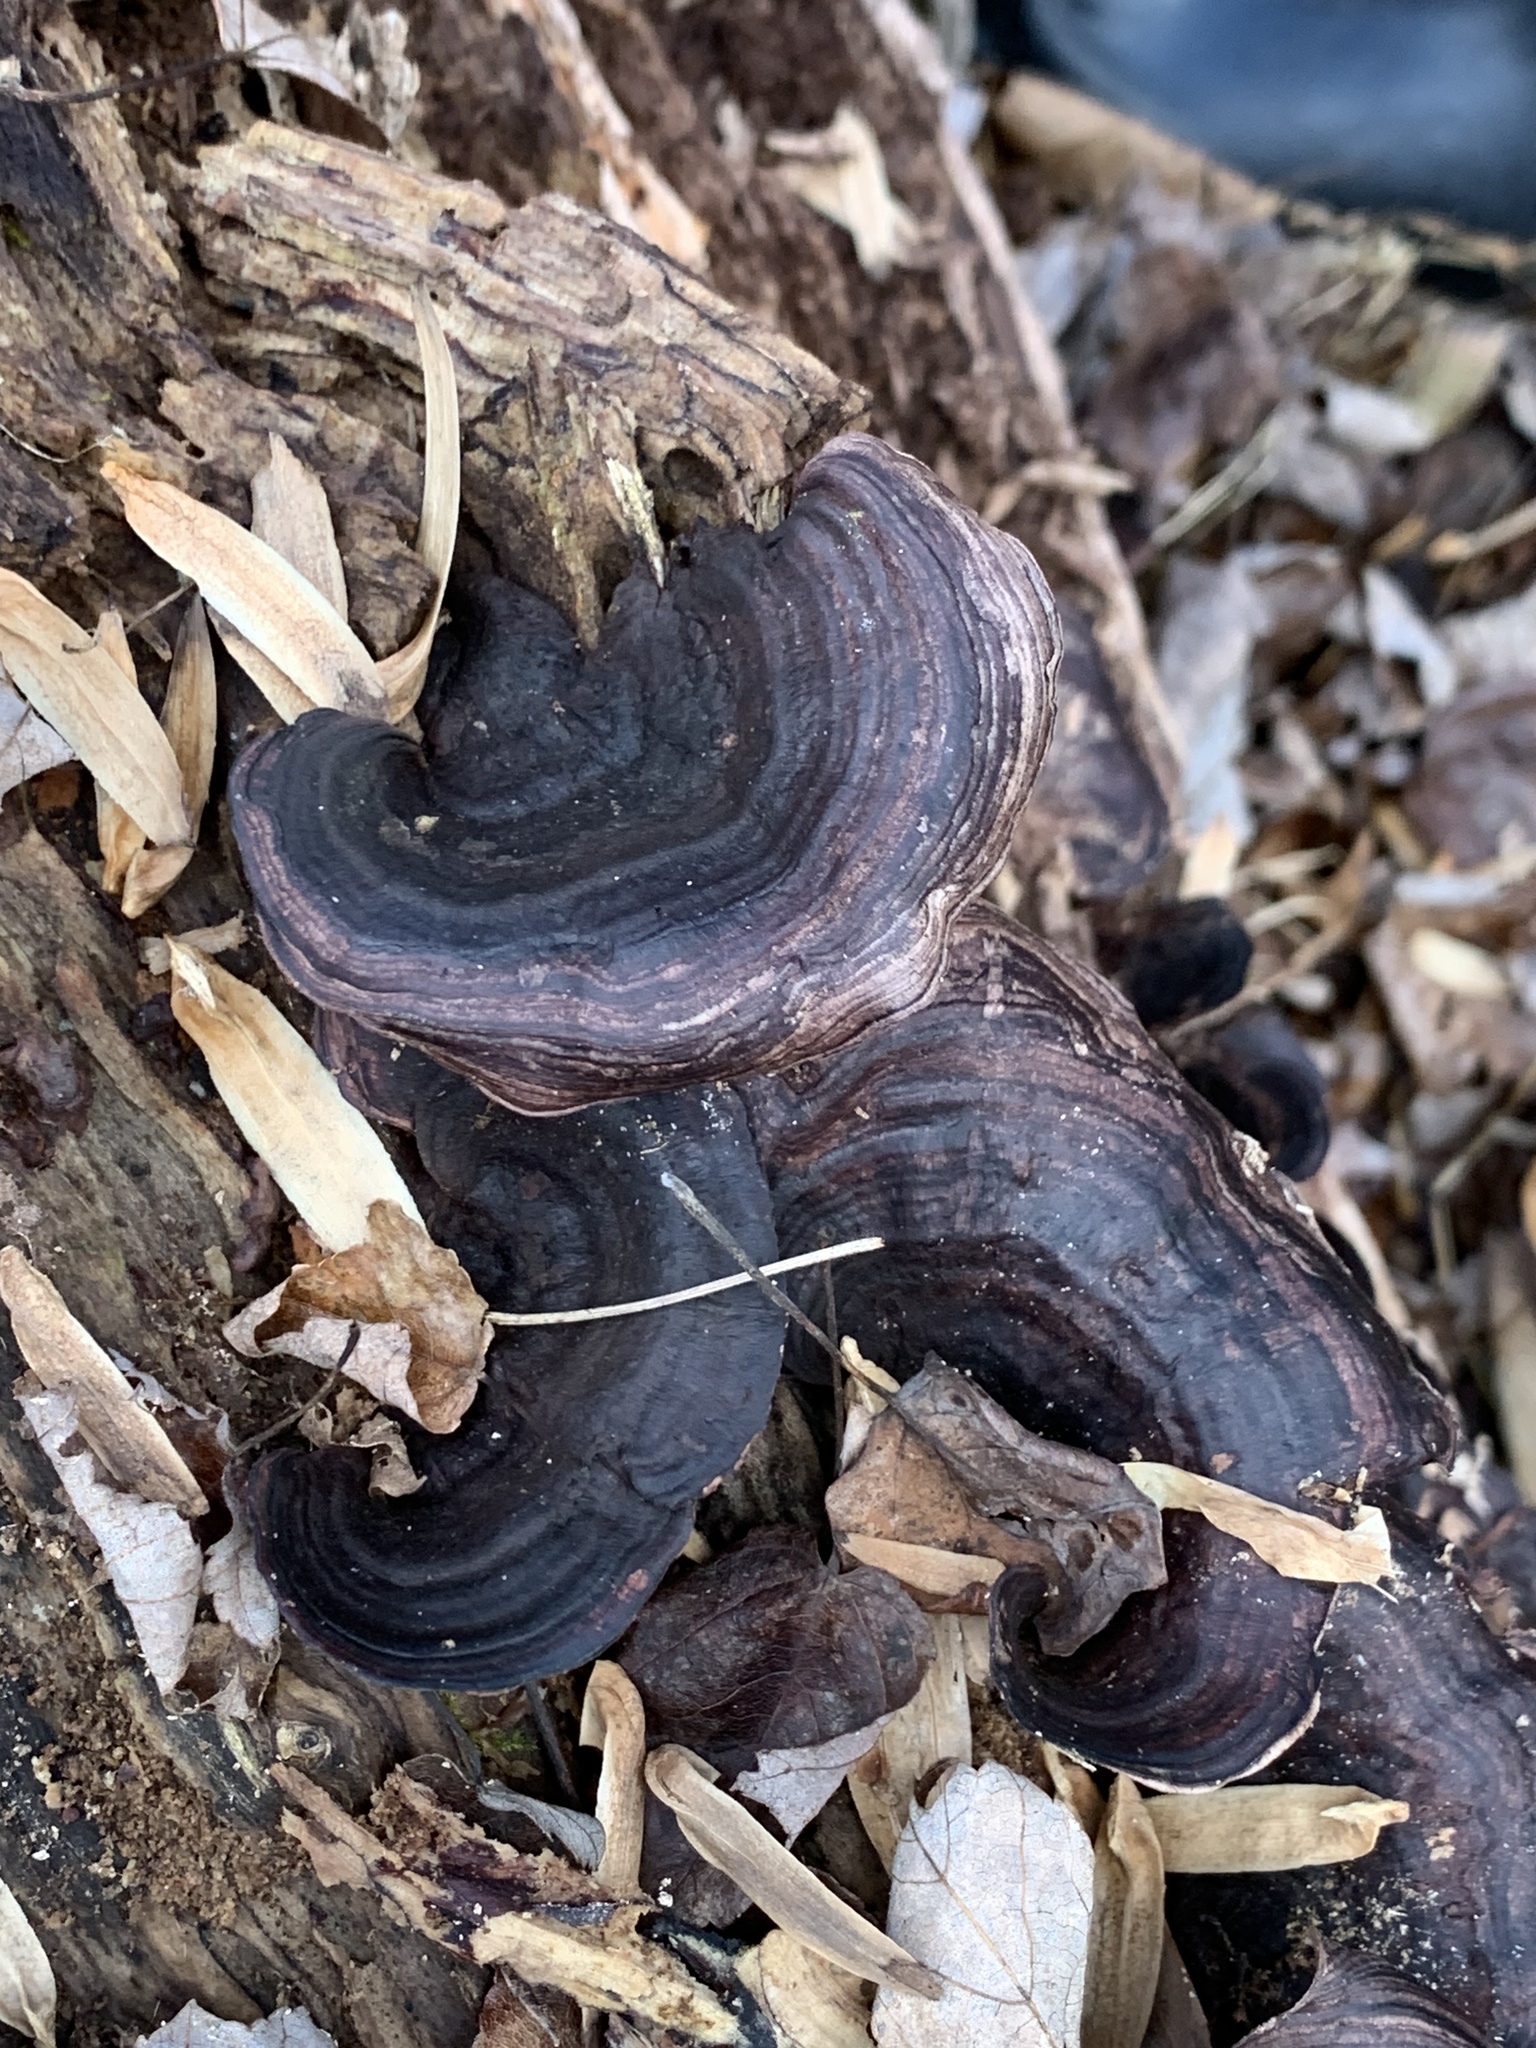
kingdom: Fungi
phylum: Basidiomycota
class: Agaricomycetes
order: Polyporales
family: Steccherinaceae
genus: Nigroporus
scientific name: Nigroporus vinosus
